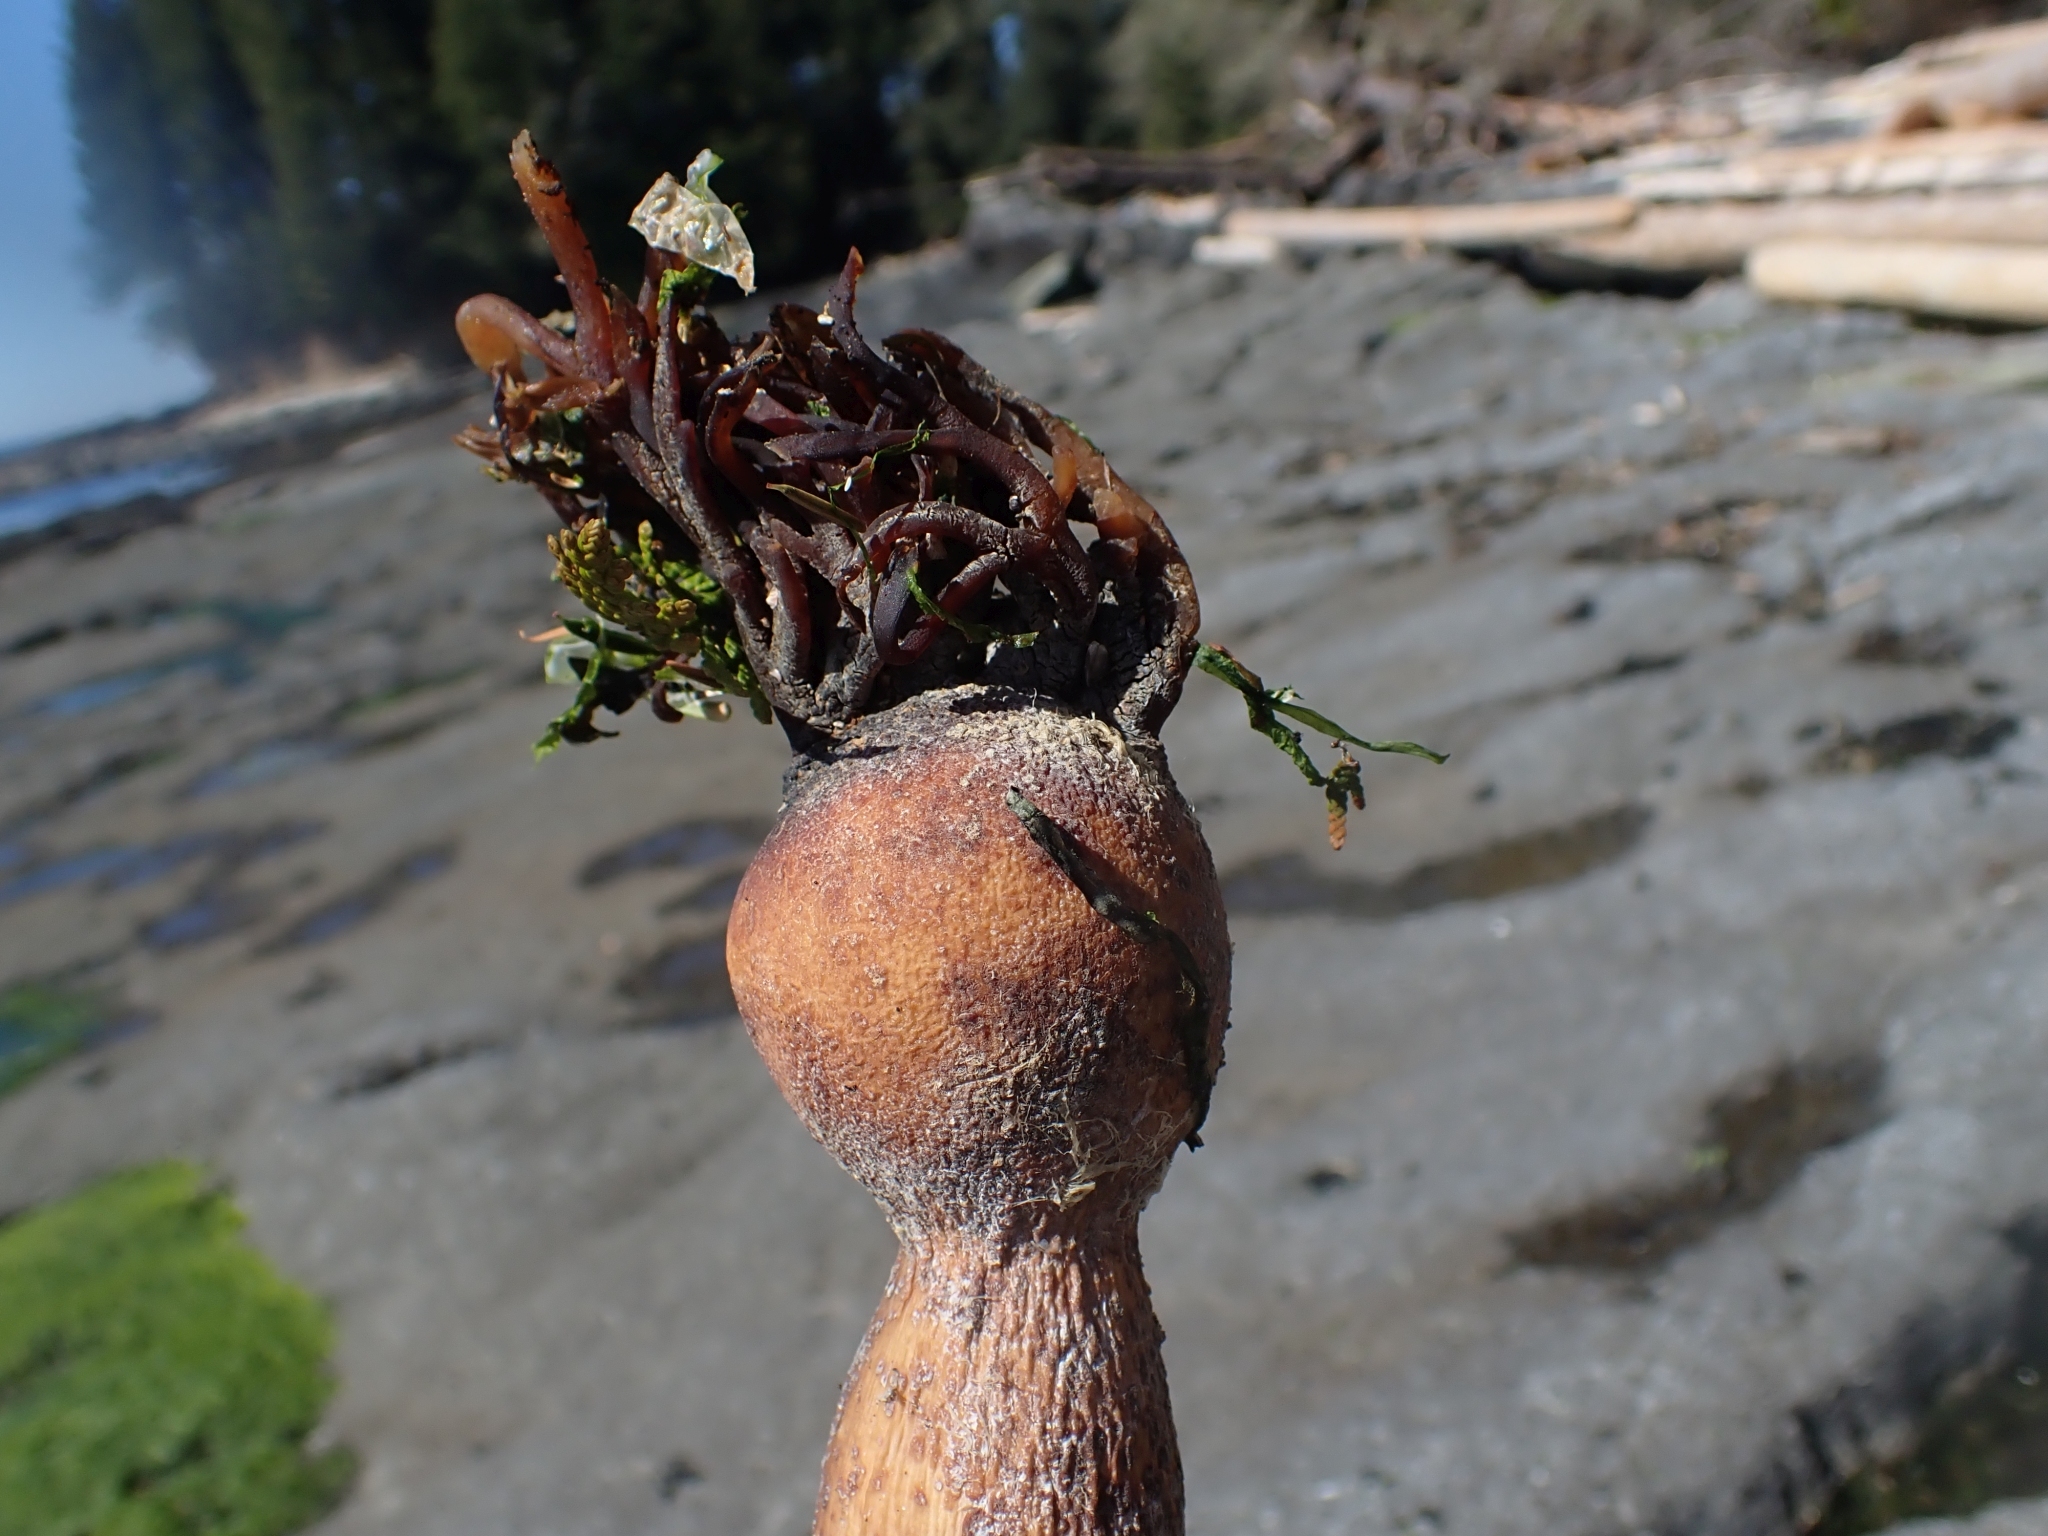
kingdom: Chromista
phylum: Ochrophyta
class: Phaeophyceae
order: Laminariales
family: Laminariaceae
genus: Nereocystis
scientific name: Nereocystis luetkeana
